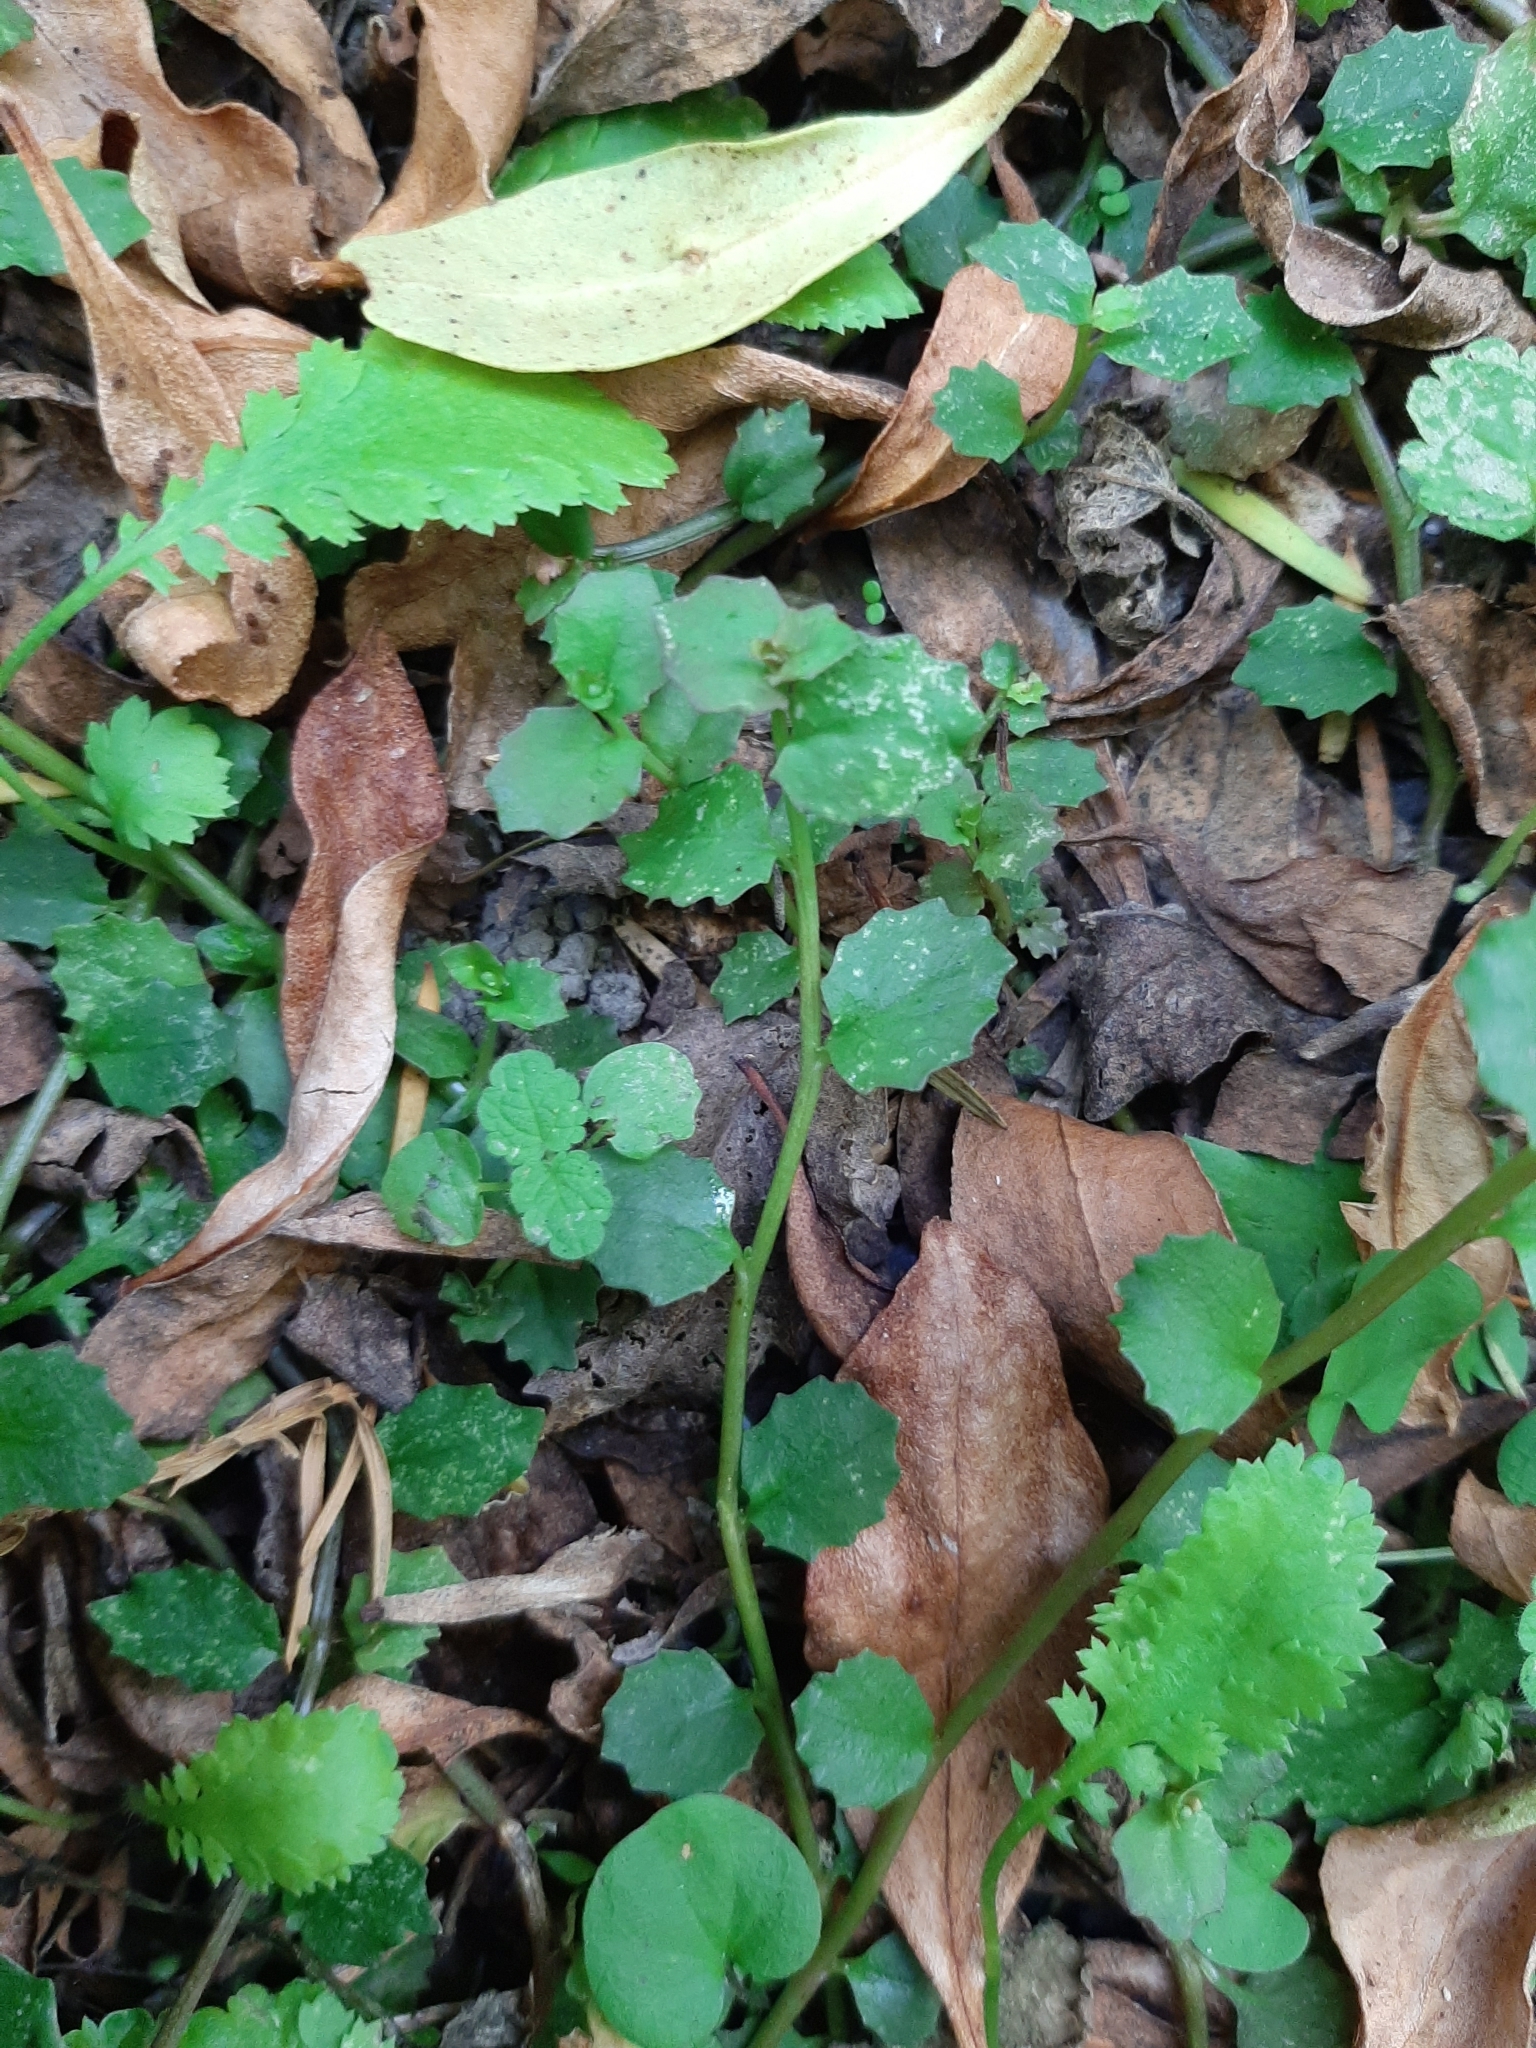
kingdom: Plantae
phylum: Tracheophyta
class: Magnoliopsida
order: Asterales
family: Campanulaceae
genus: Lobelia
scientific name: Lobelia angulata
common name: Lawn lobelia
